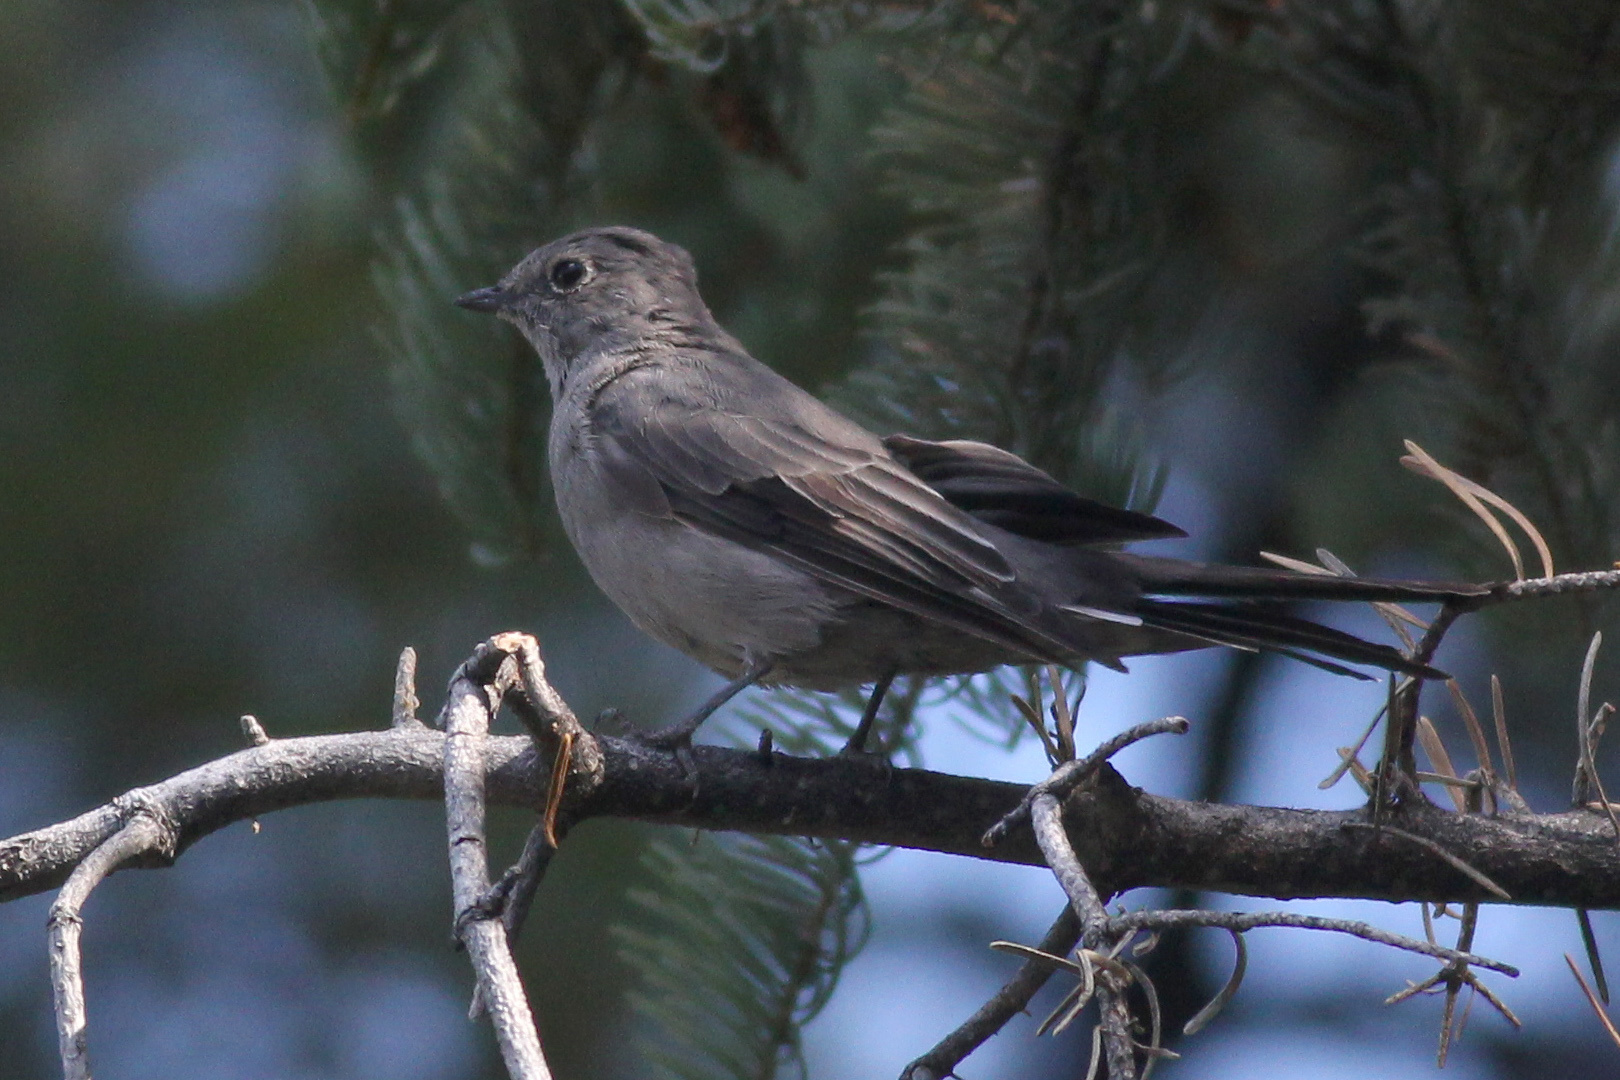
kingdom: Animalia
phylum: Chordata
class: Aves
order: Passeriformes
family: Turdidae
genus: Myadestes
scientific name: Myadestes townsendi
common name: Townsend's solitaire
